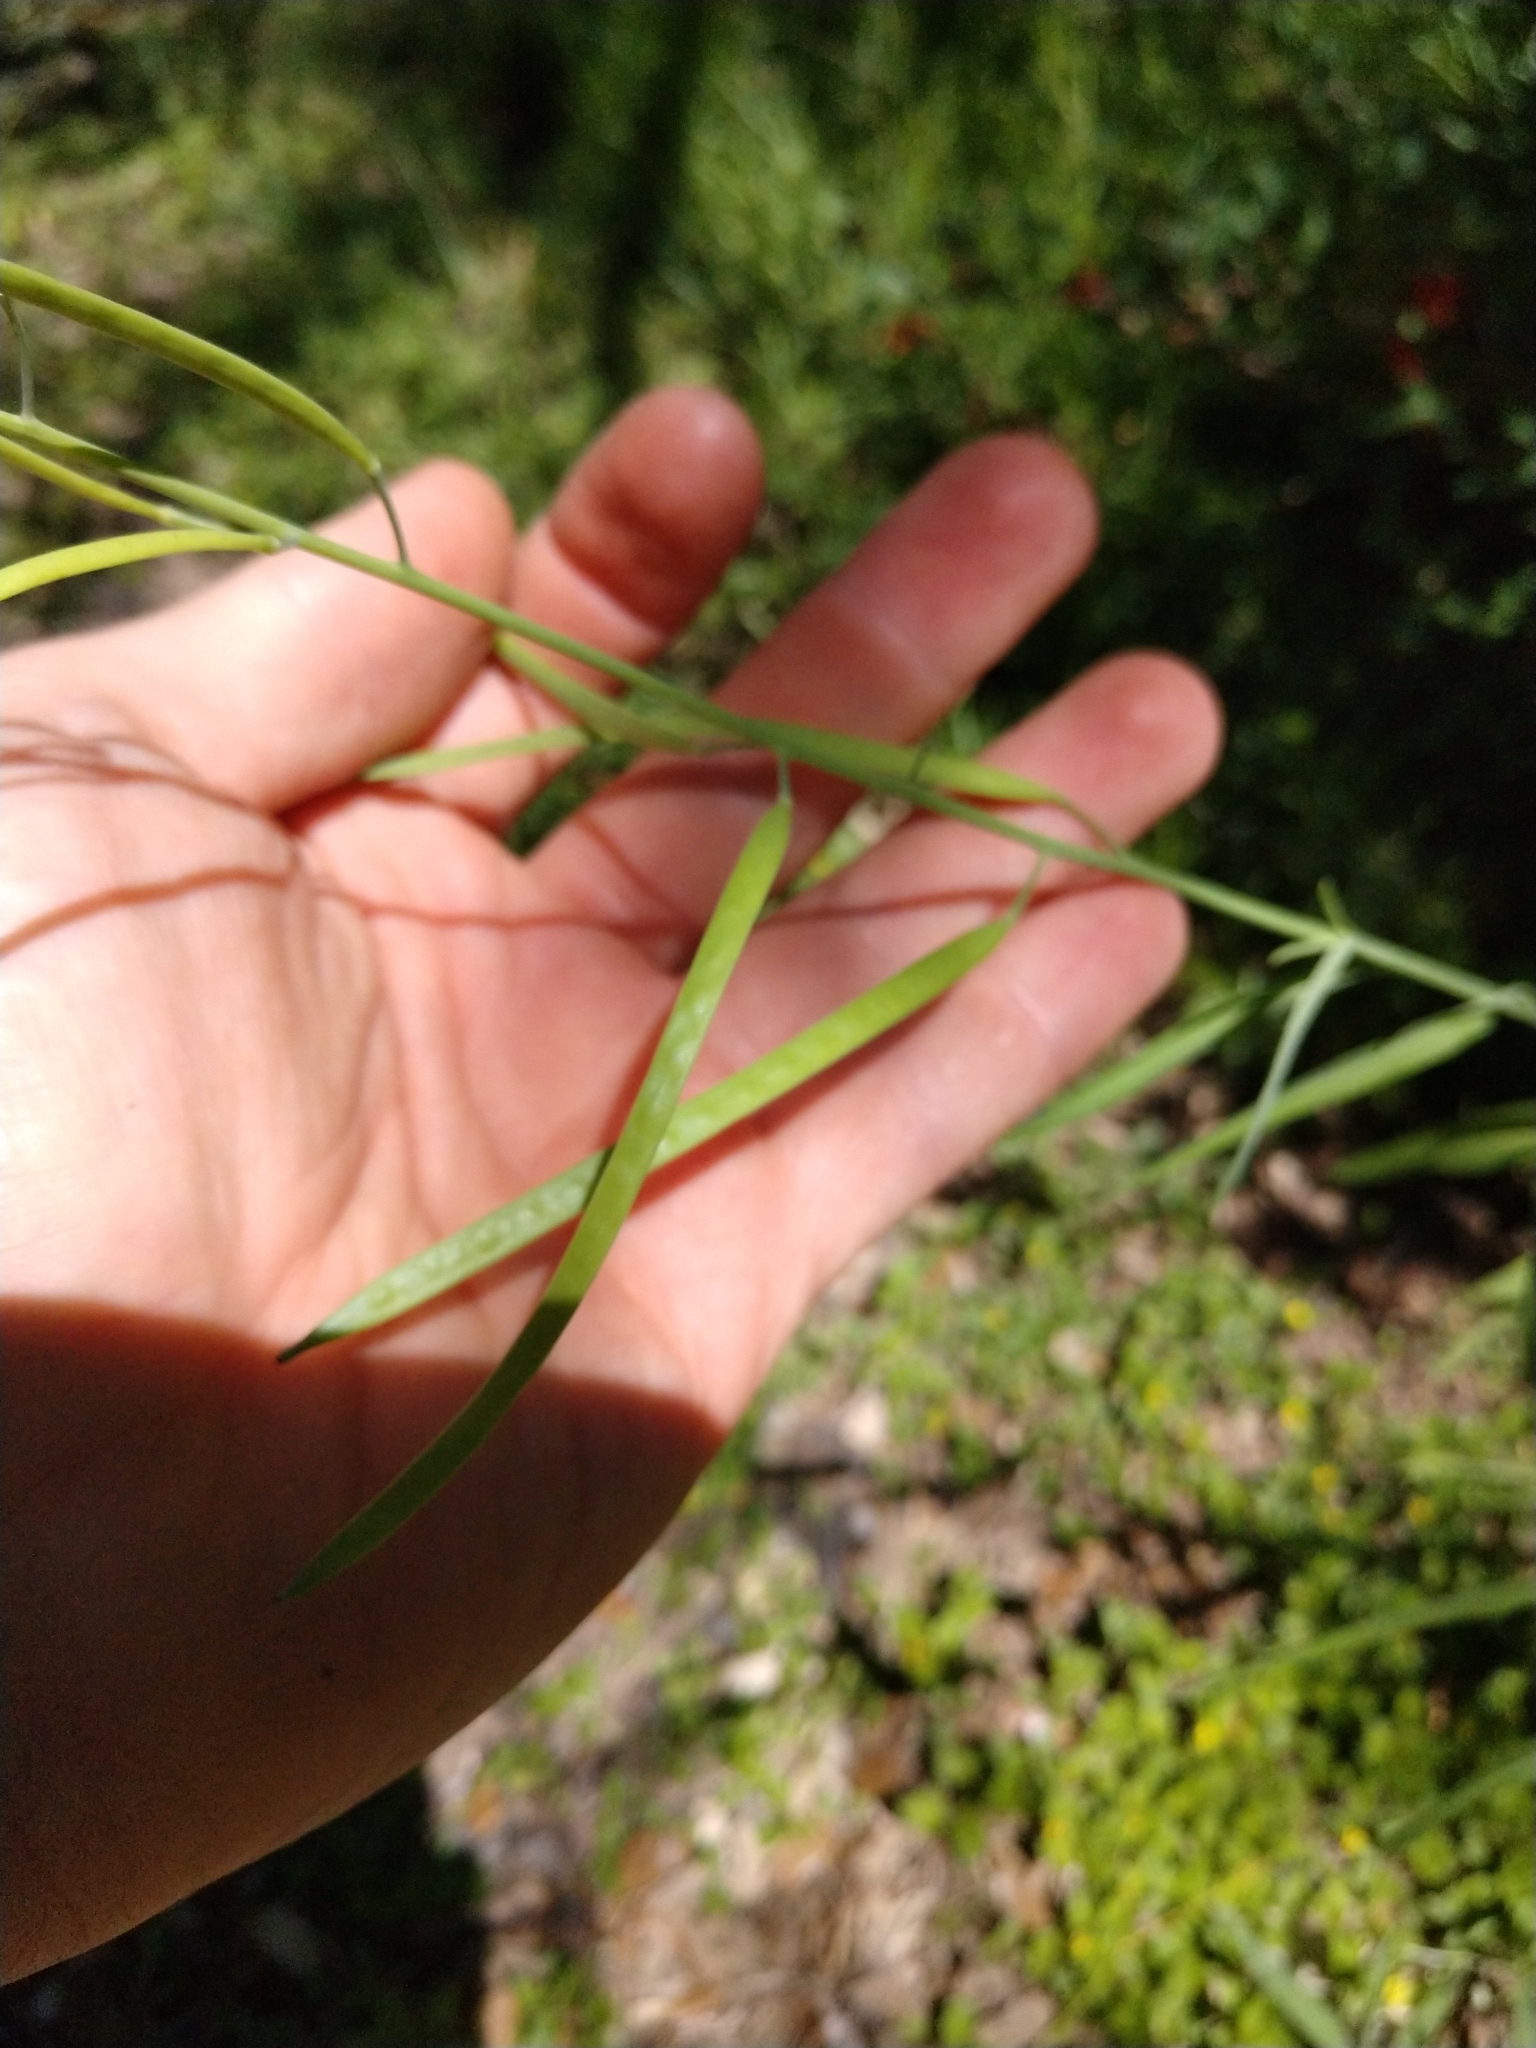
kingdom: Plantae
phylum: Tracheophyta
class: Magnoliopsida
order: Brassicales
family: Brassicaceae
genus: Streptanthus
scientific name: Streptanthus petiolaris
